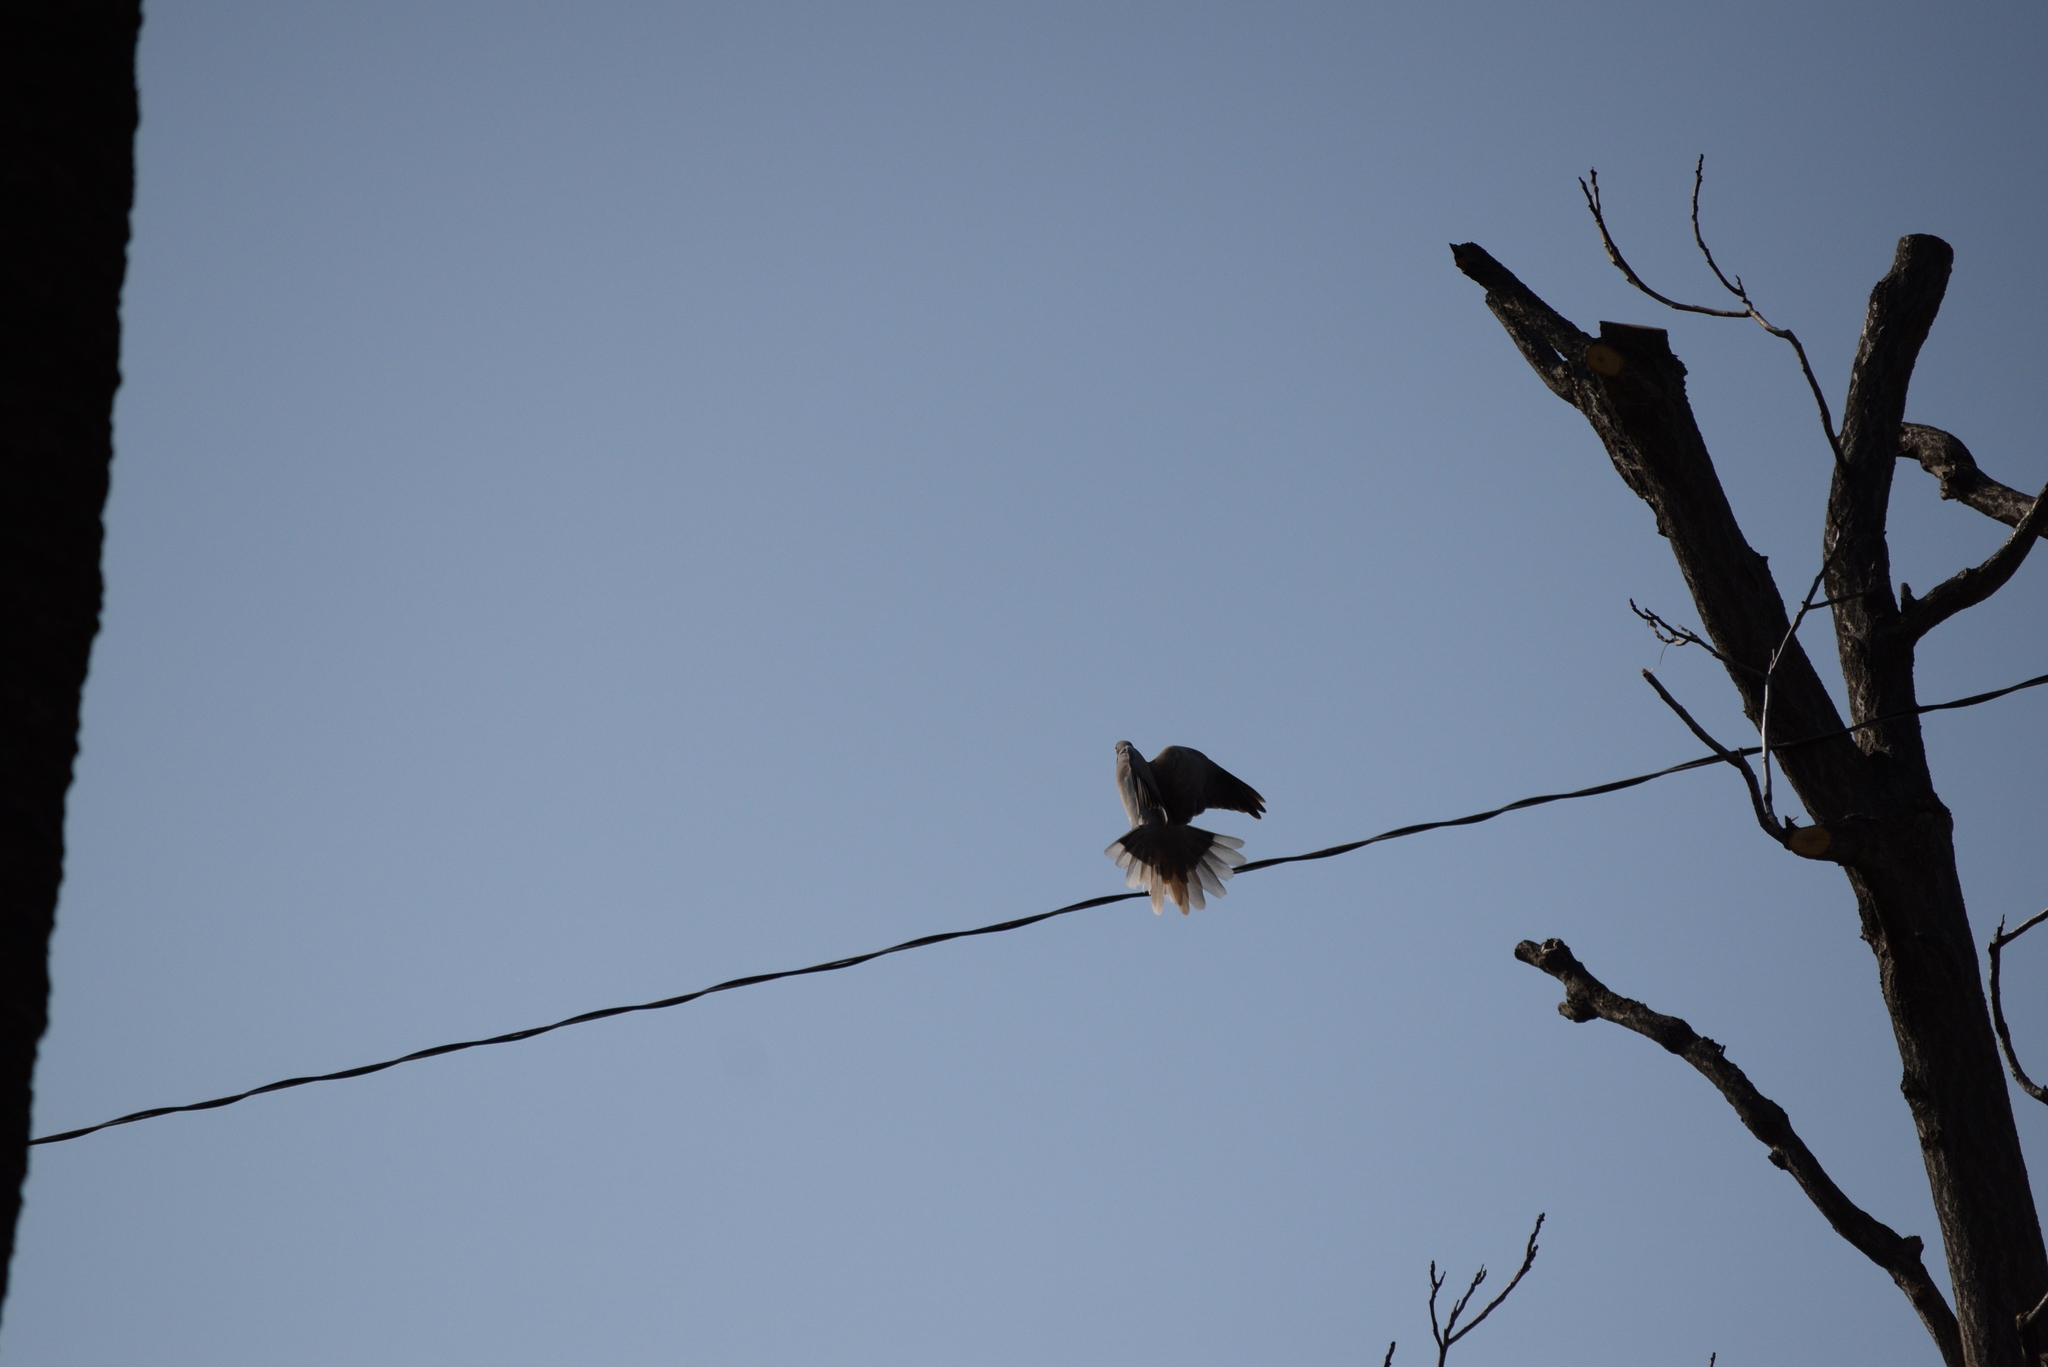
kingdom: Animalia
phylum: Chordata
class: Aves
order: Columbiformes
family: Columbidae
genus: Streptopelia
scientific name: Streptopelia decaocto
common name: Eurasian collared dove
